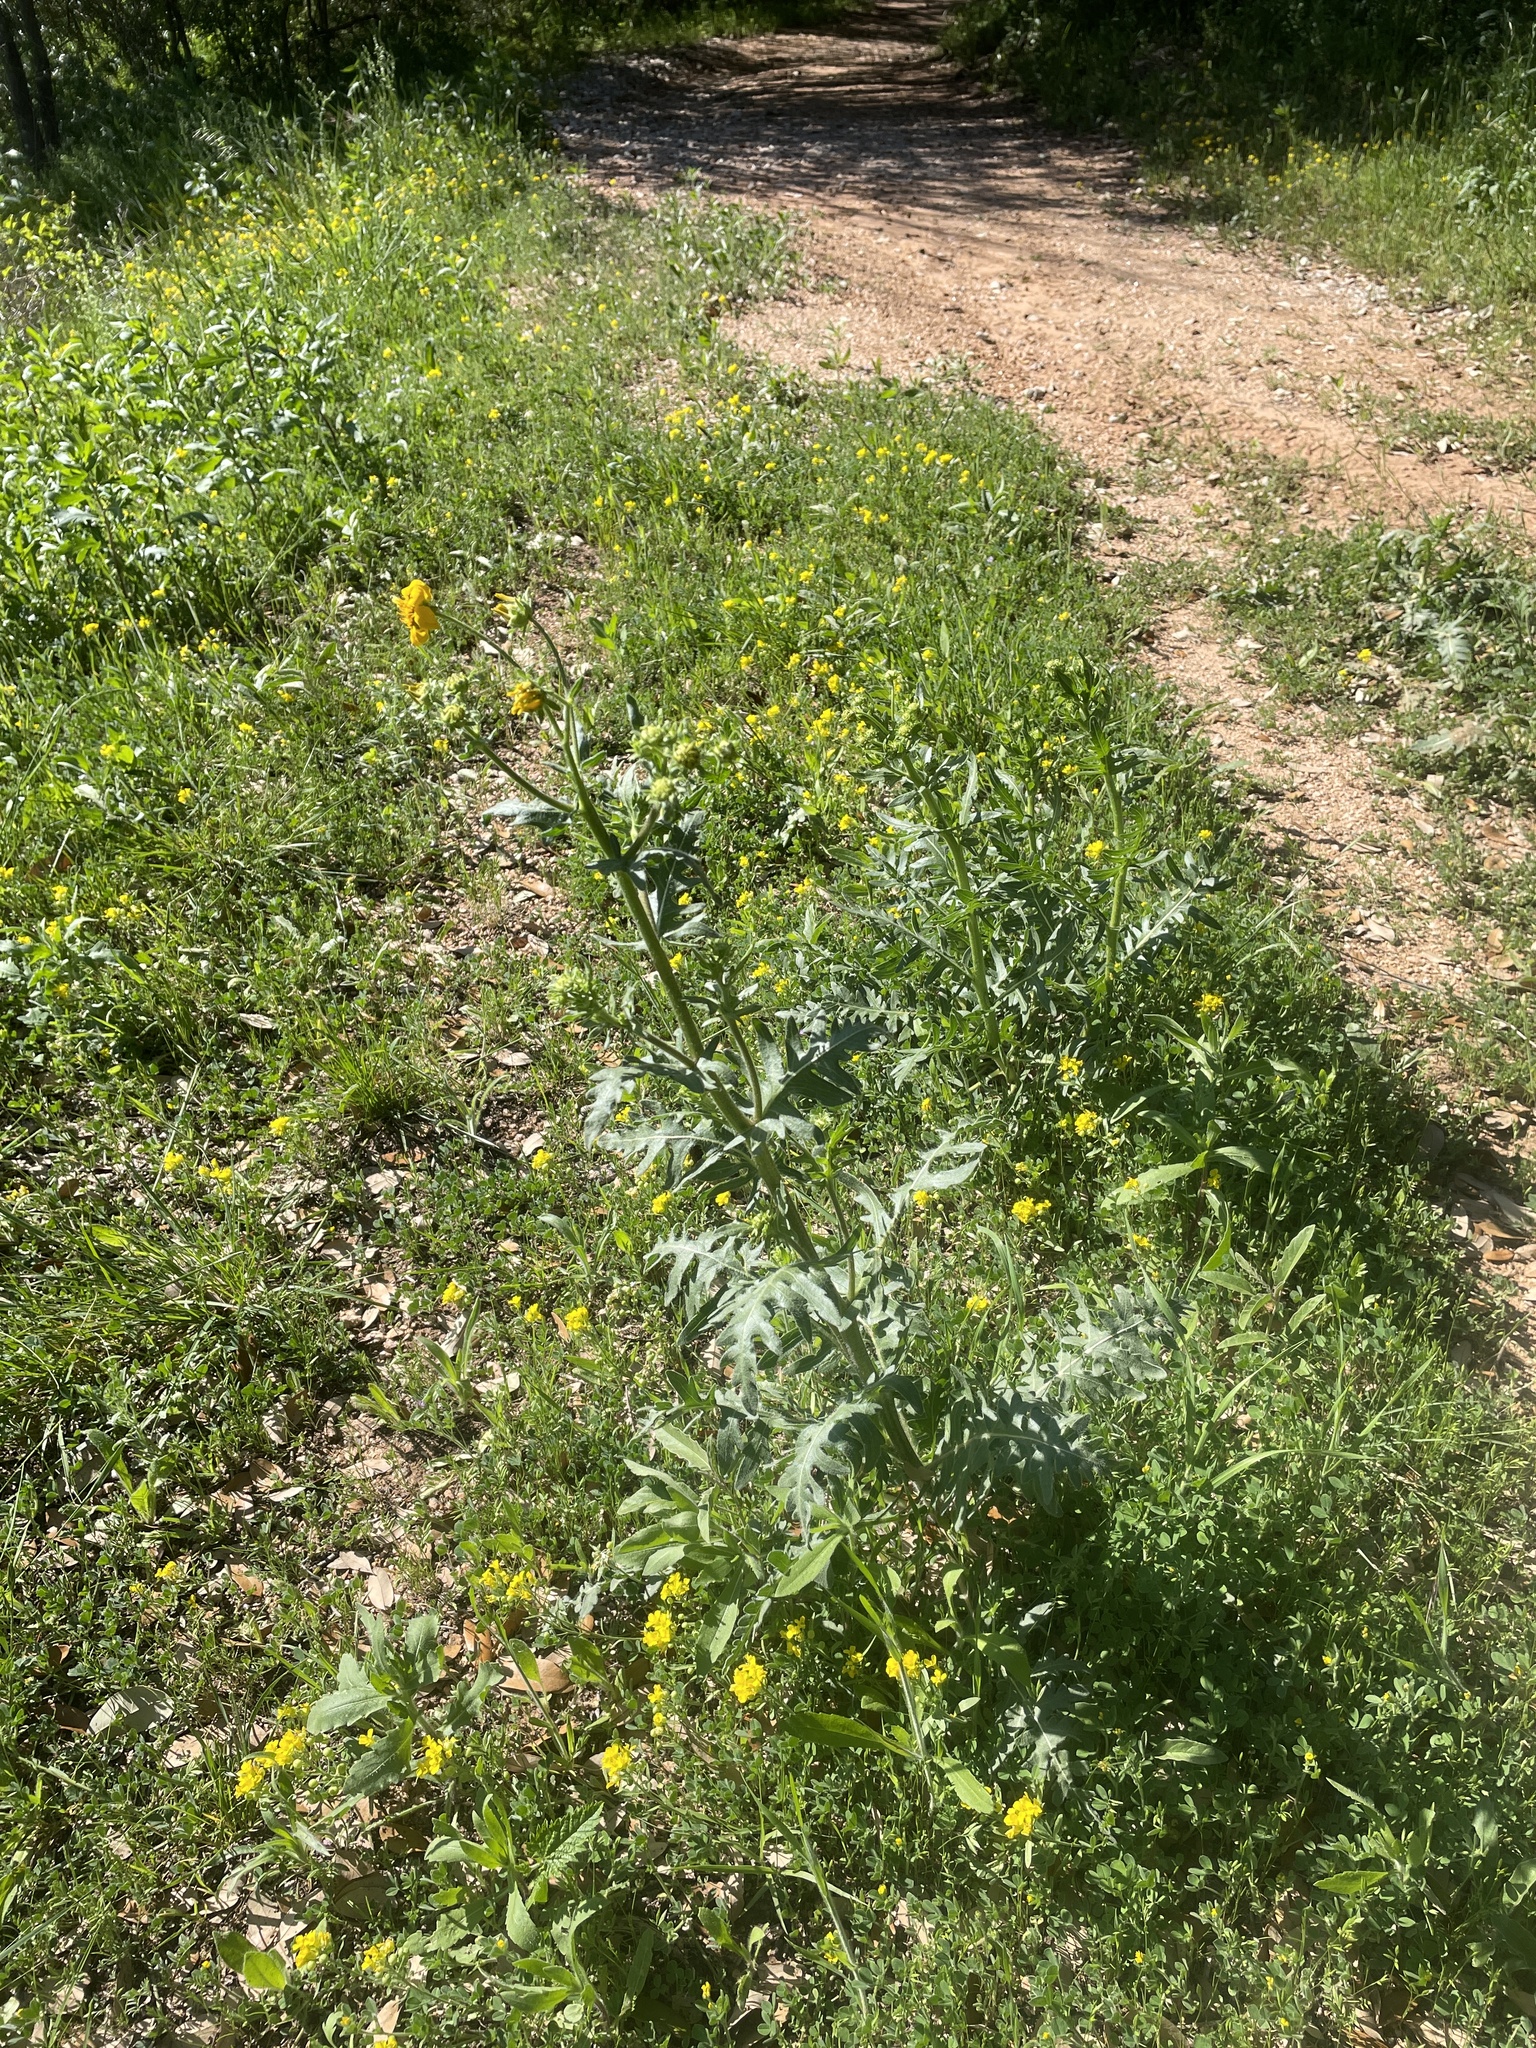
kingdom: Plantae
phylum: Tracheophyta
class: Magnoliopsida
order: Asterales
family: Asteraceae
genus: Engelmannia
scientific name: Engelmannia peristenia
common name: Engelmann's daisy
